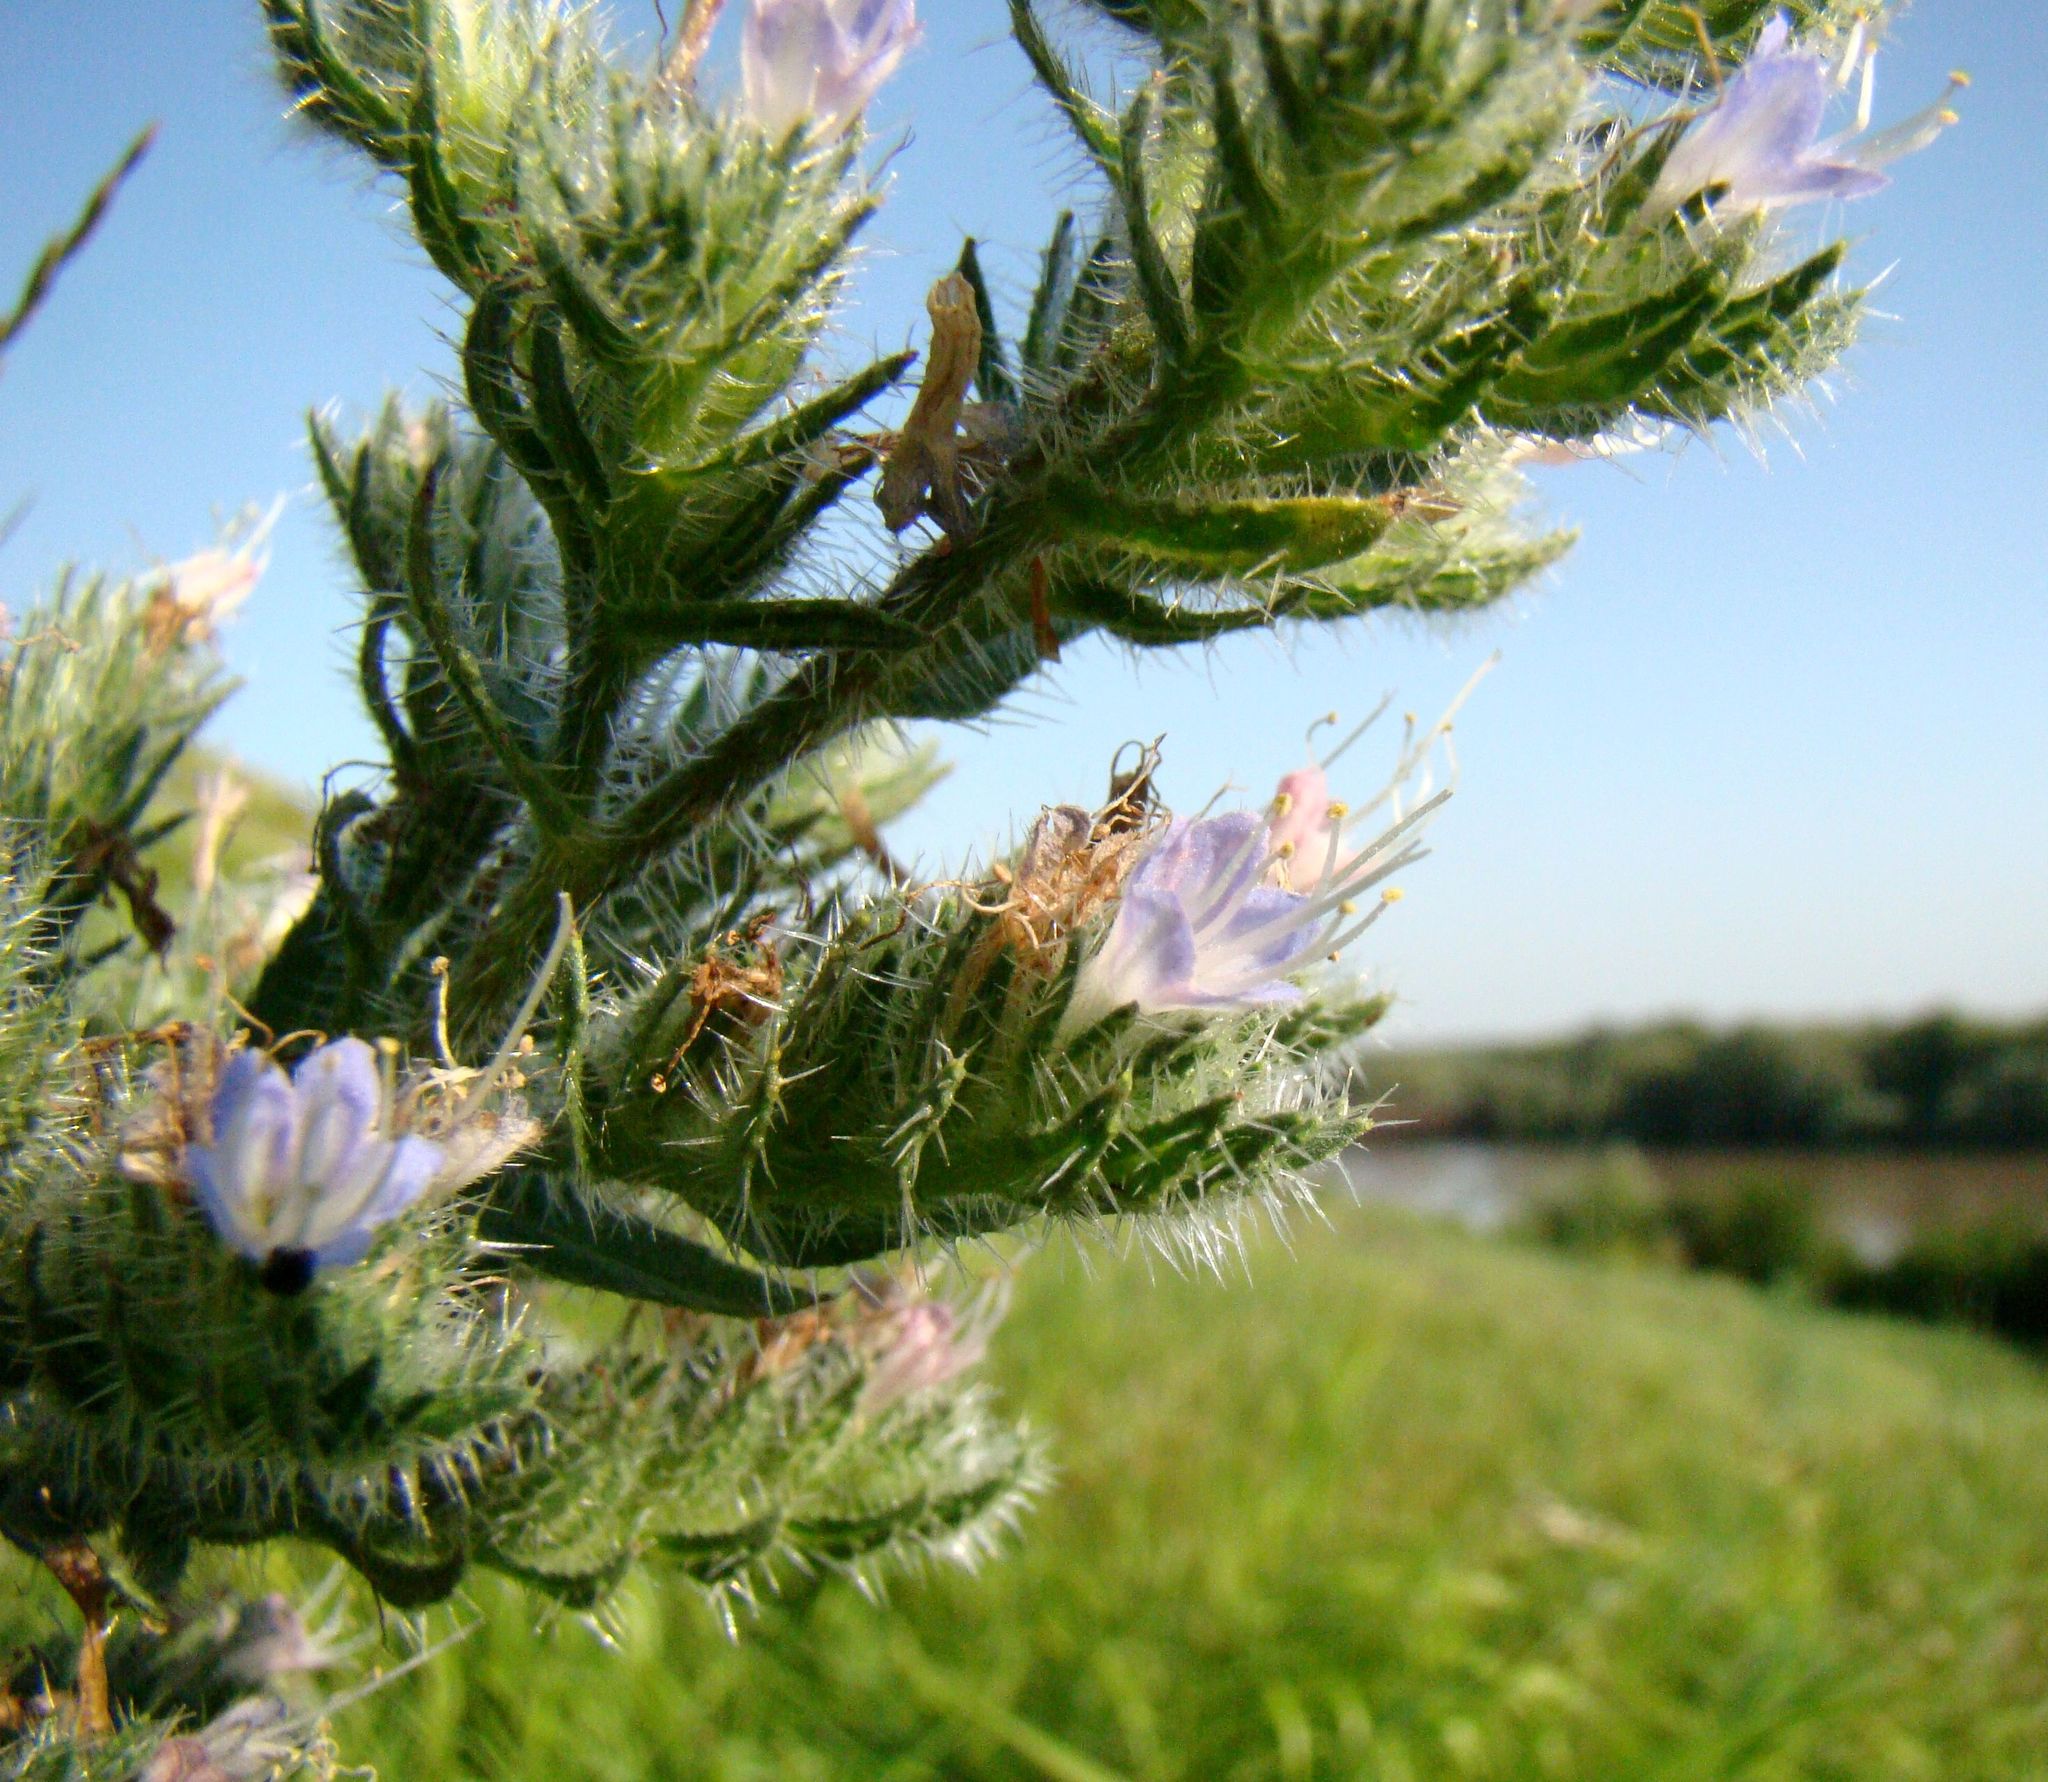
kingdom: Plantae
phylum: Tracheophyta
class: Magnoliopsida
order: Boraginales
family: Boraginaceae
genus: Echium
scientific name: Echium italicum
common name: Italian viper's bugloss
